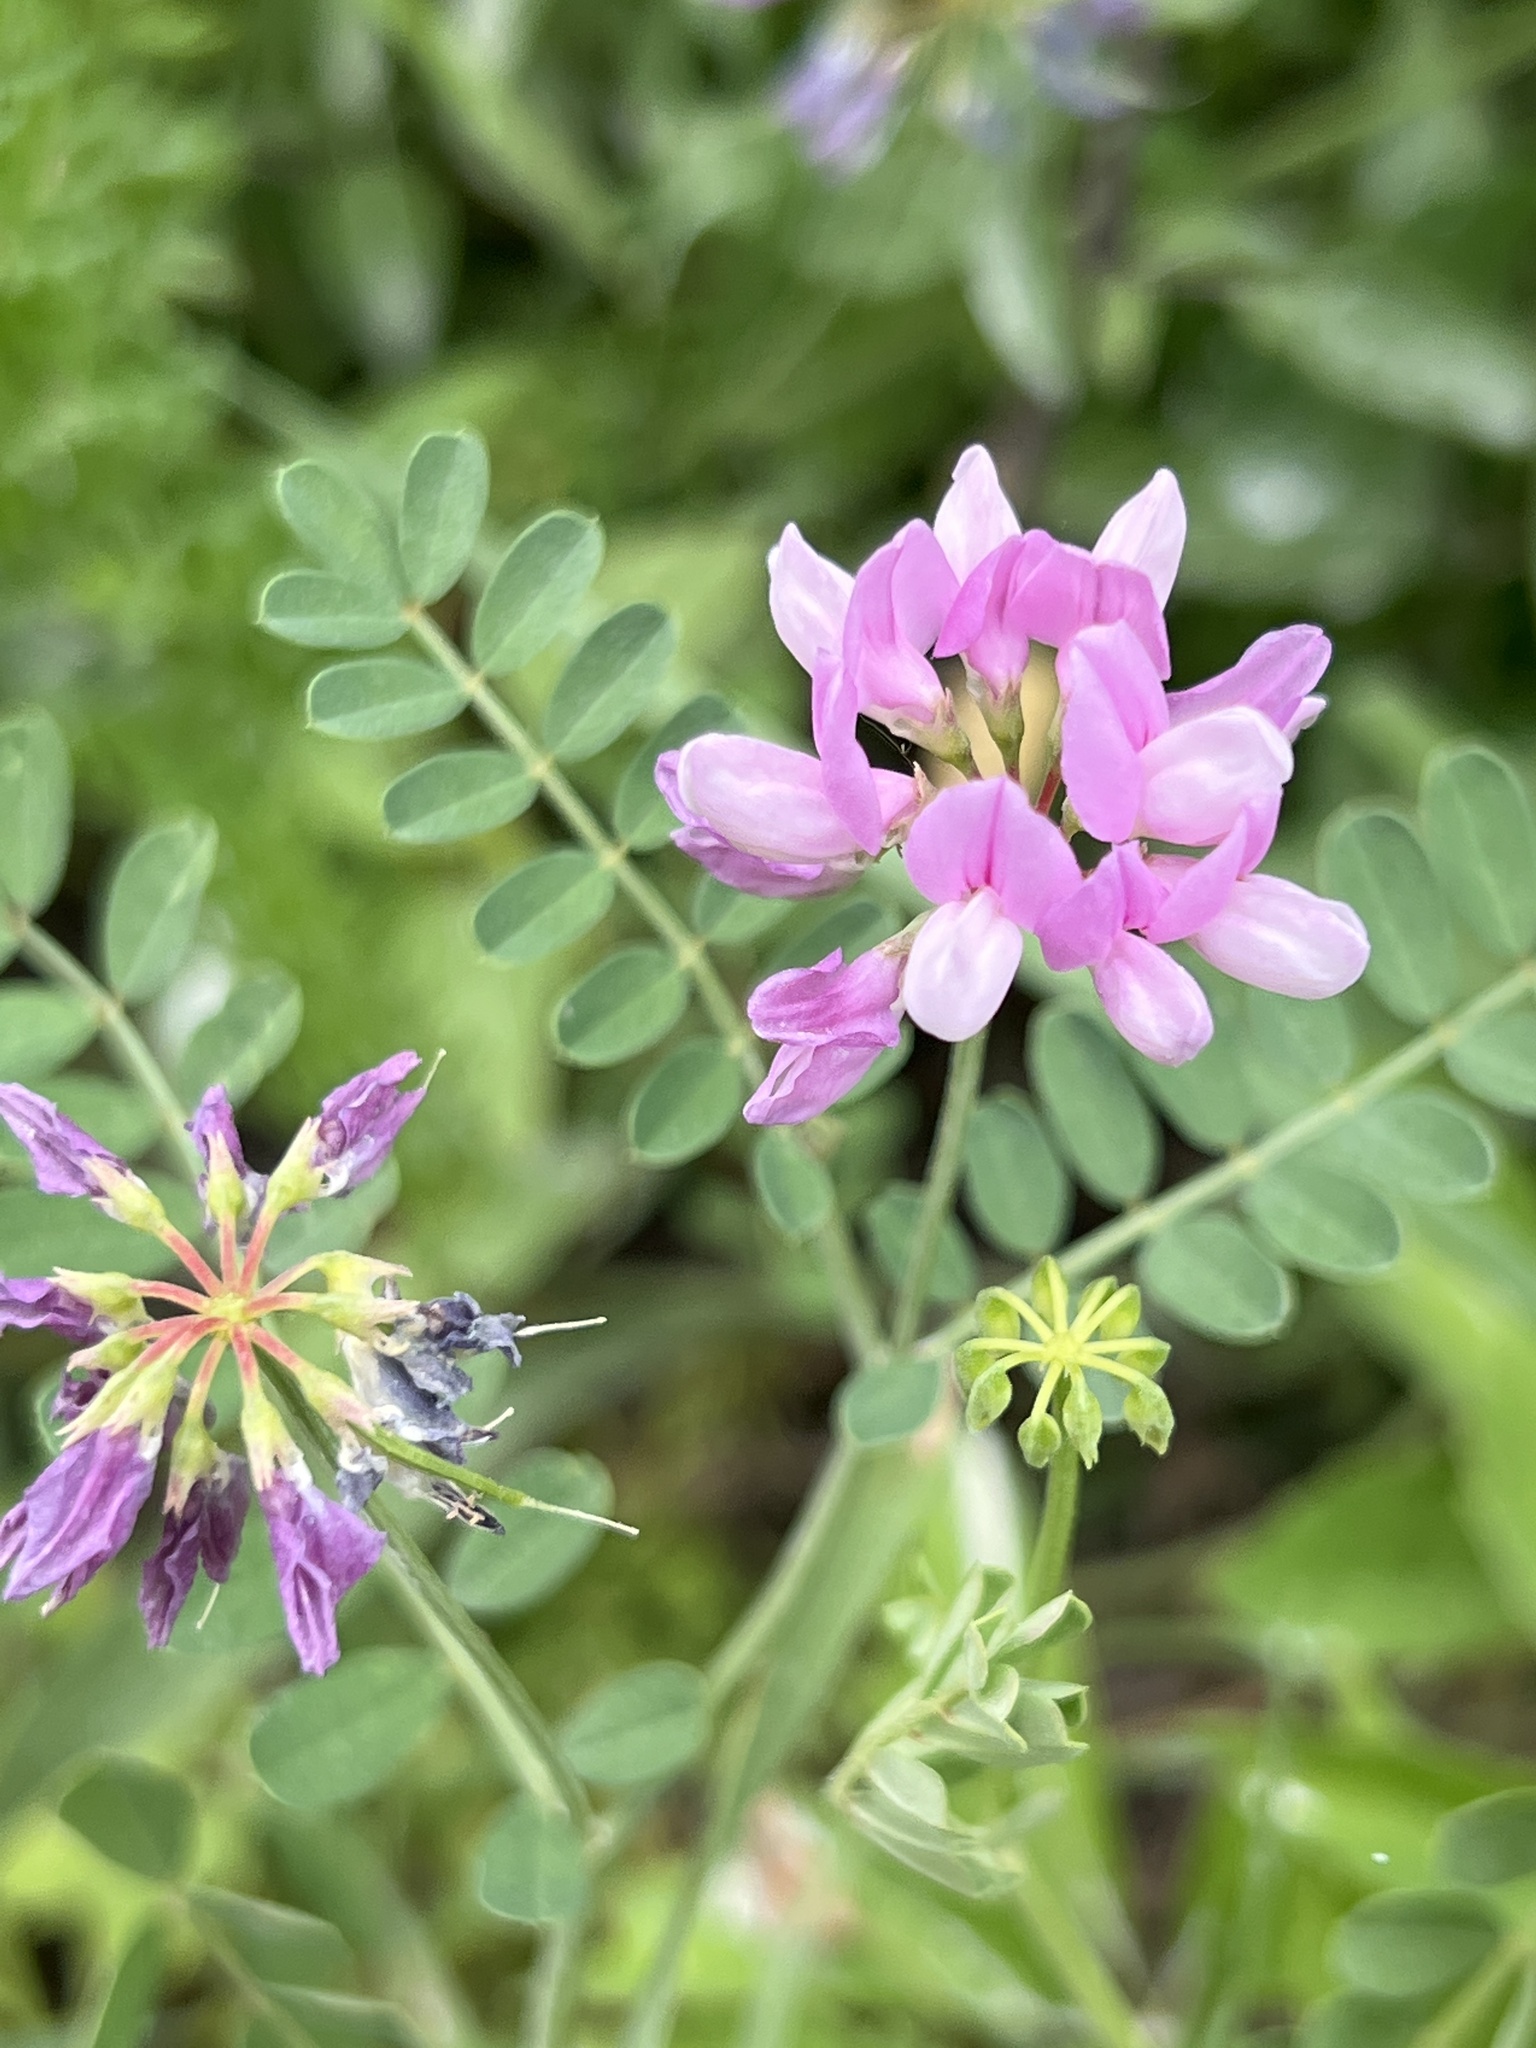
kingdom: Plantae
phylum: Tracheophyta
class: Magnoliopsida
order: Fabales
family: Fabaceae
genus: Coronilla
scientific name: Coronilla varia
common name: Crownvetch
